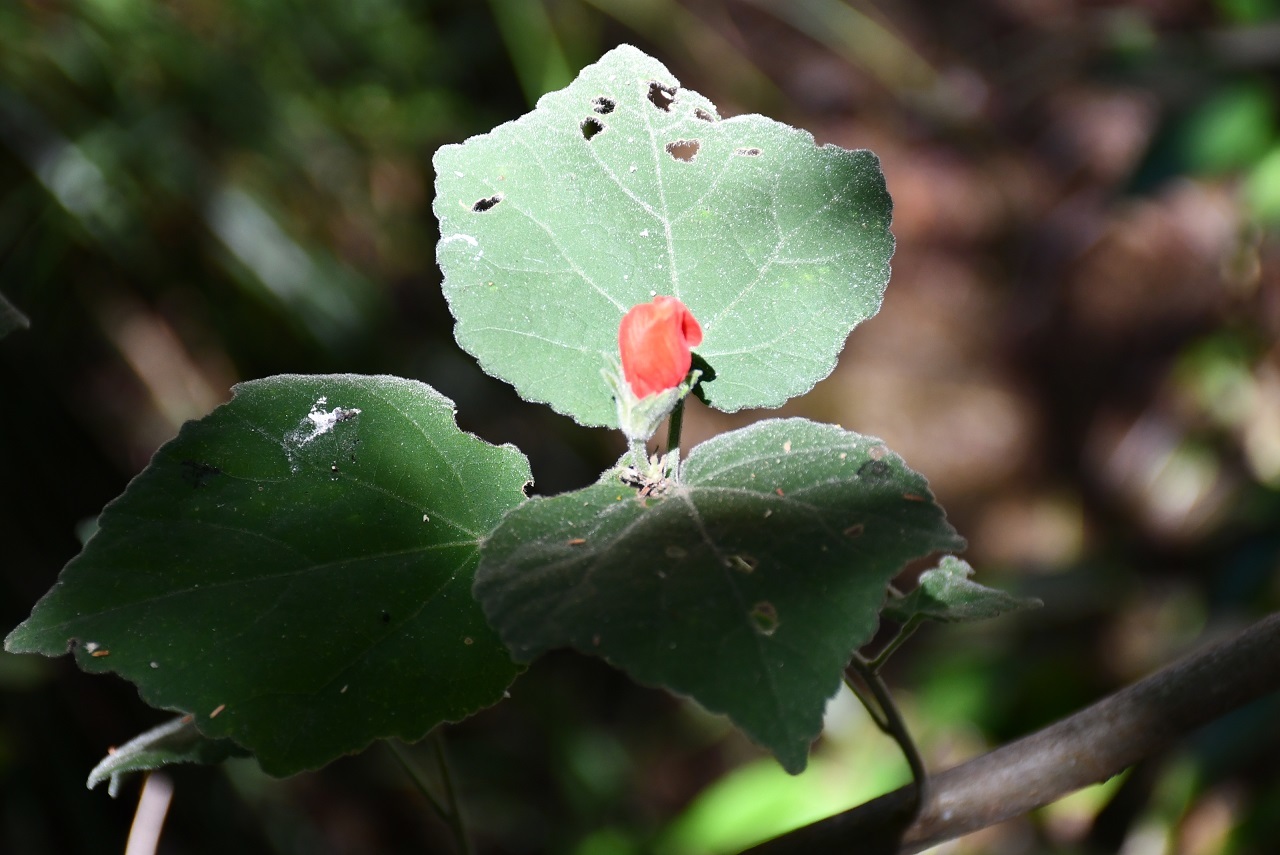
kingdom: Plantae
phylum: Tracheophyta
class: Magnoliopsida
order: Malvales
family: Malvaceae
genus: Malvaviscus
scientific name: Malvaviscus arboreus
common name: Wax mallow
